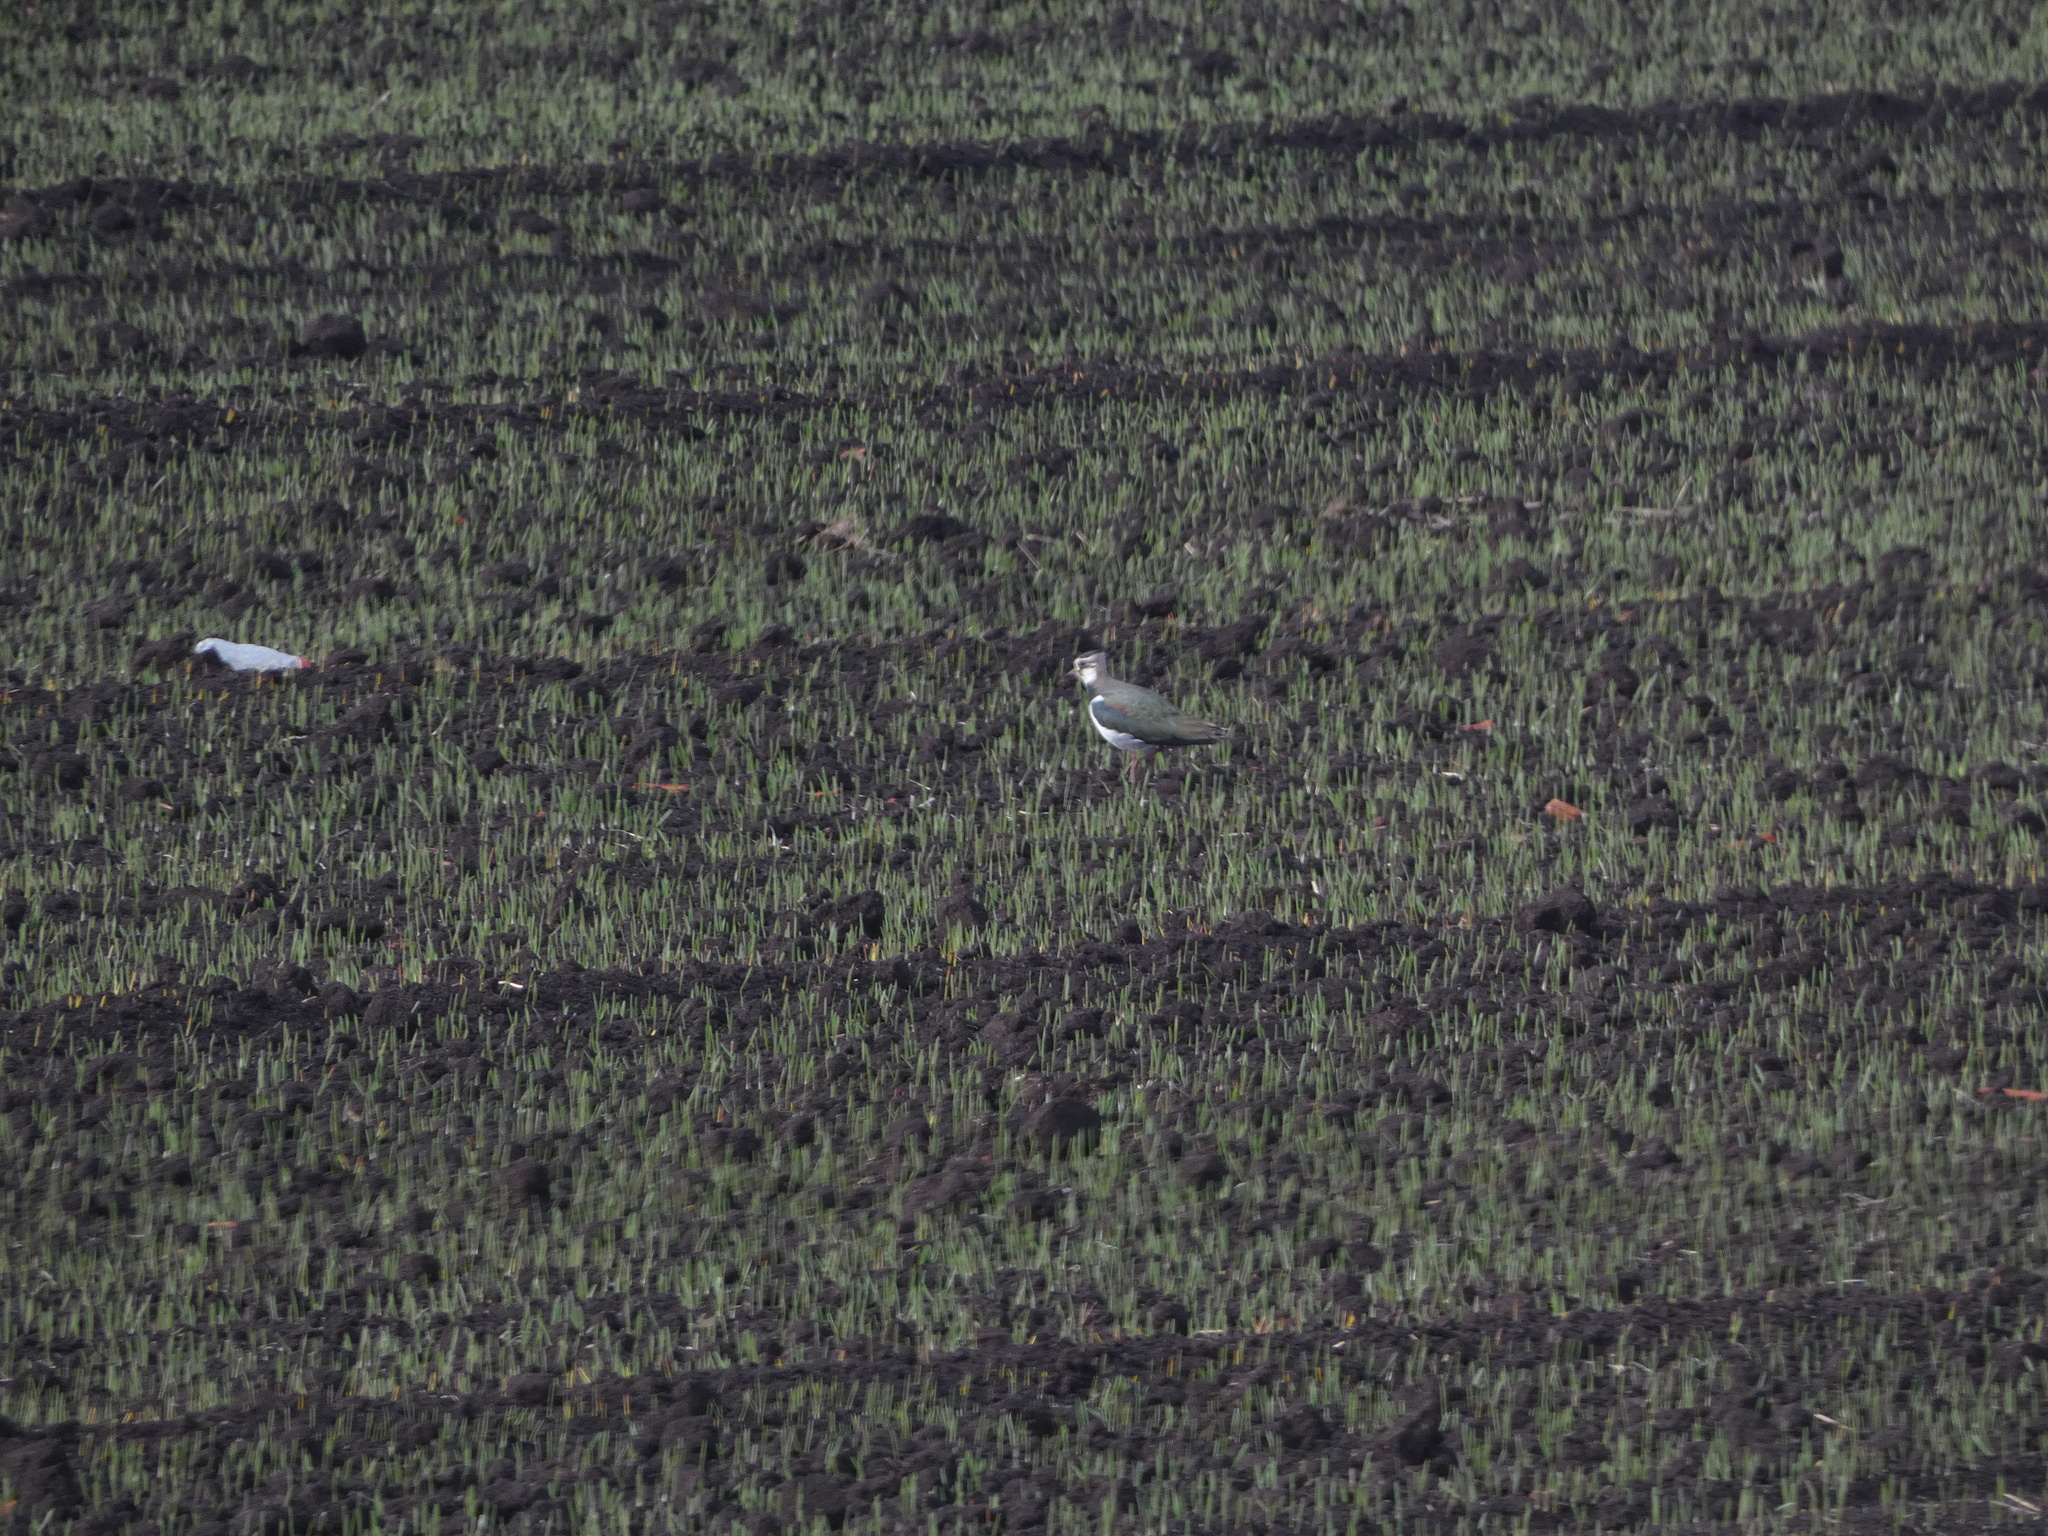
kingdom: Animalia
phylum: Chordata
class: Aves
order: Charadriiformes
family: Charadriidae
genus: Vanellus
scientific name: Vanellus vanellus
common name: Northern lapwing
